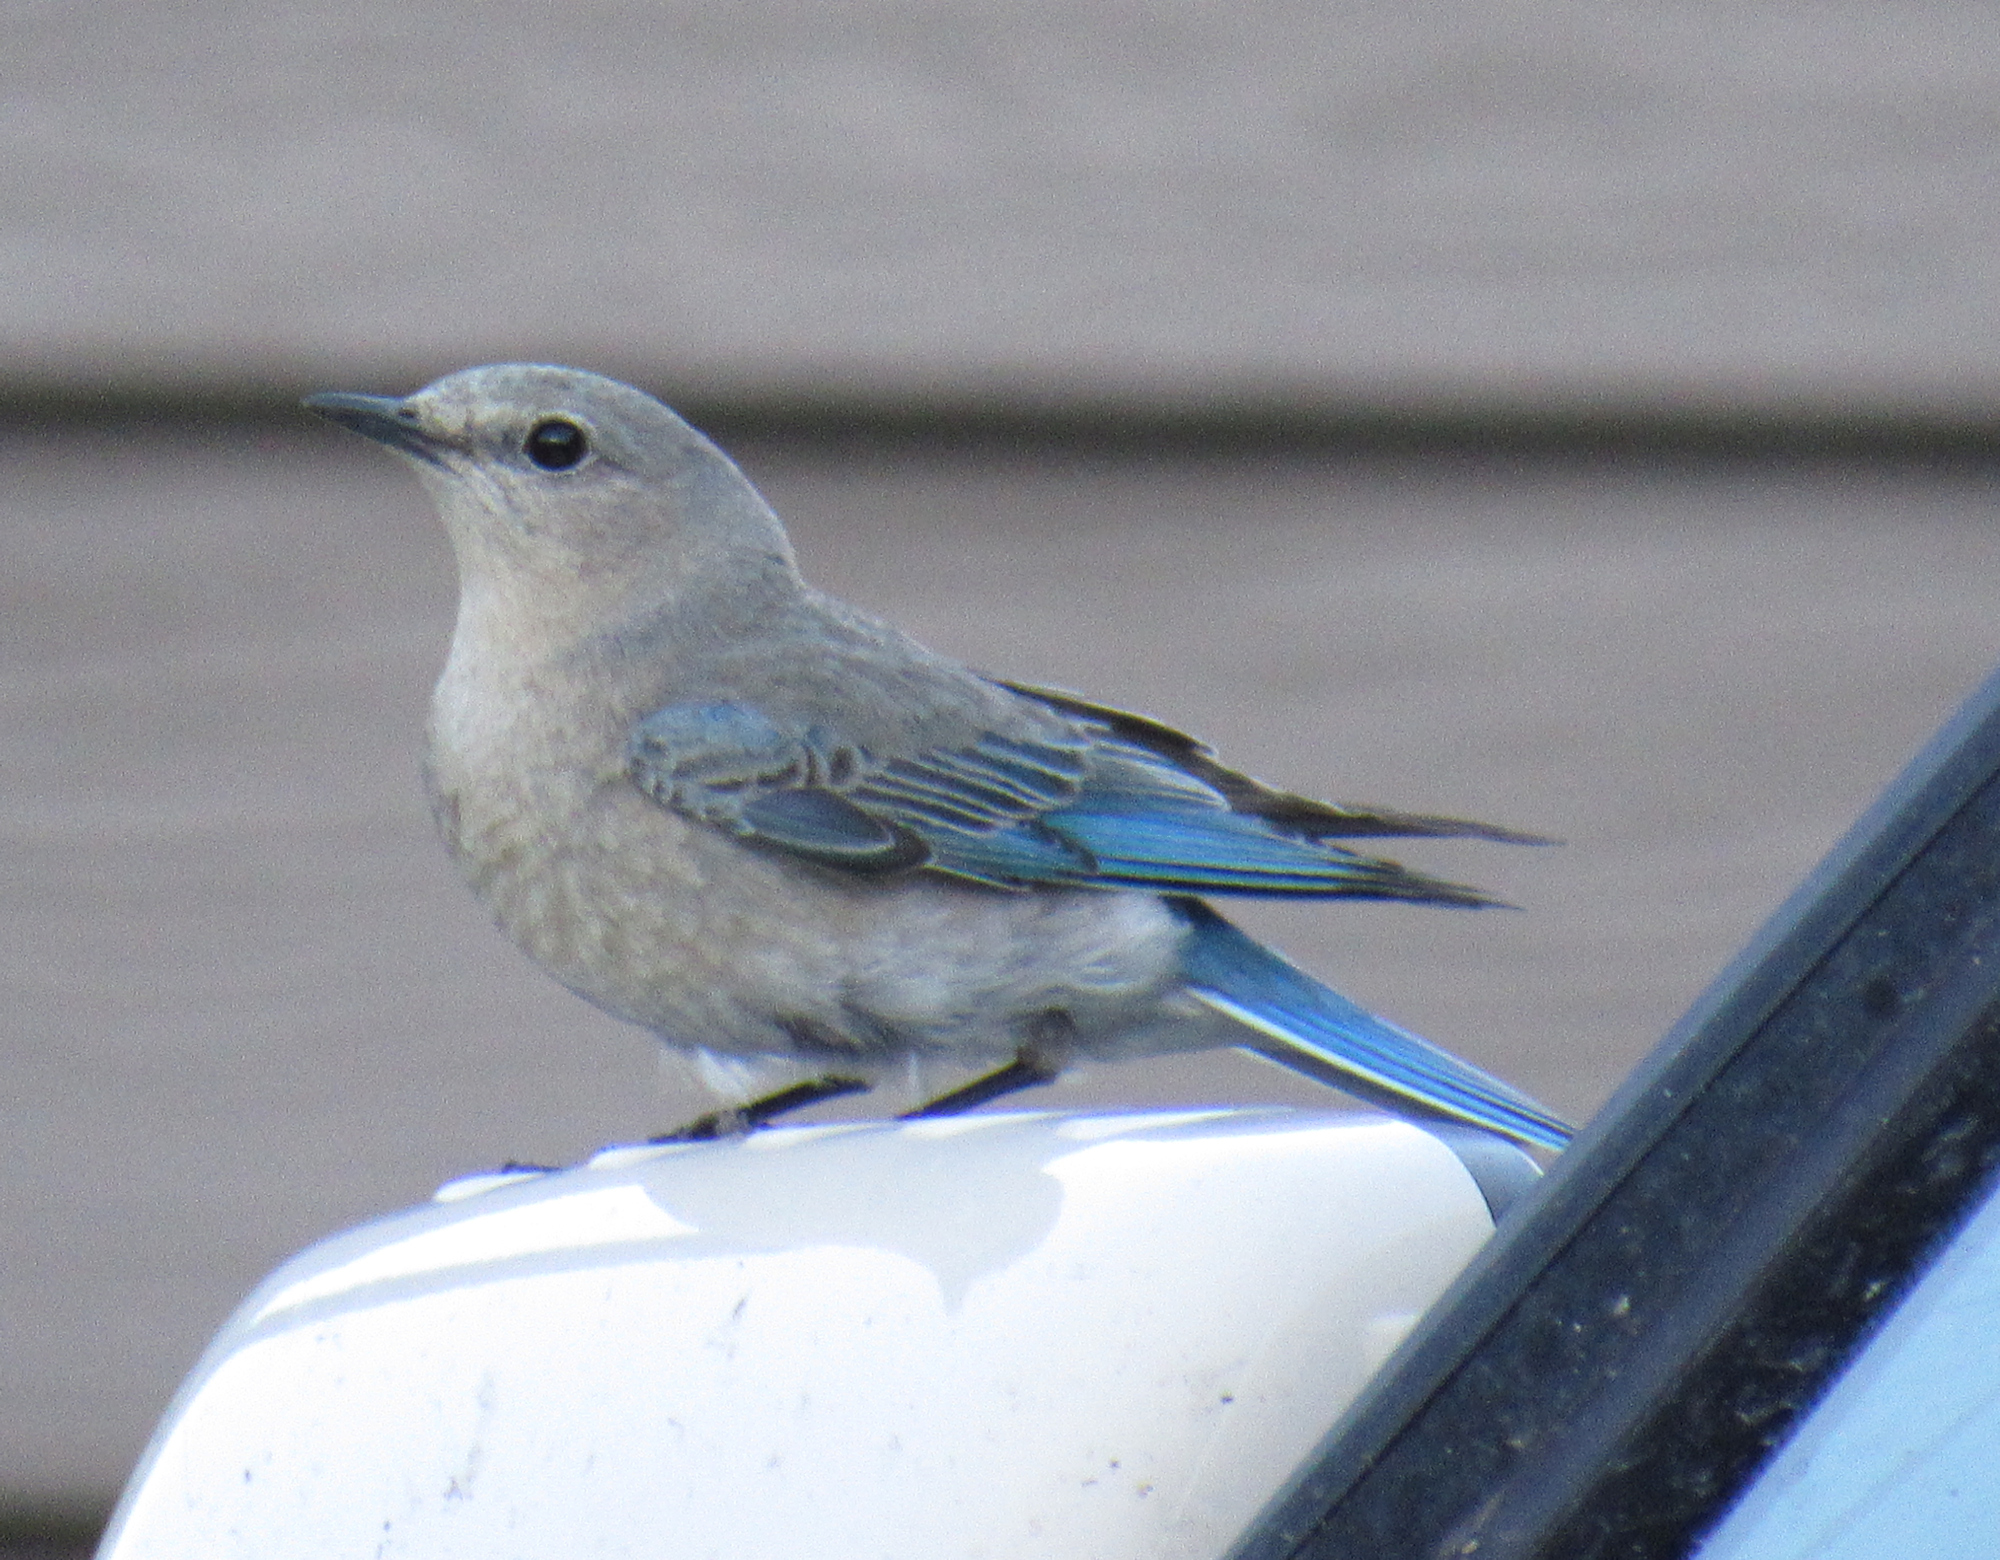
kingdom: Animalia
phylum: Chordata
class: Aves
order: Passeriformes
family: Turdidae
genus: Sialia
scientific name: Sialia currucoides
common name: Mountain bluebird
